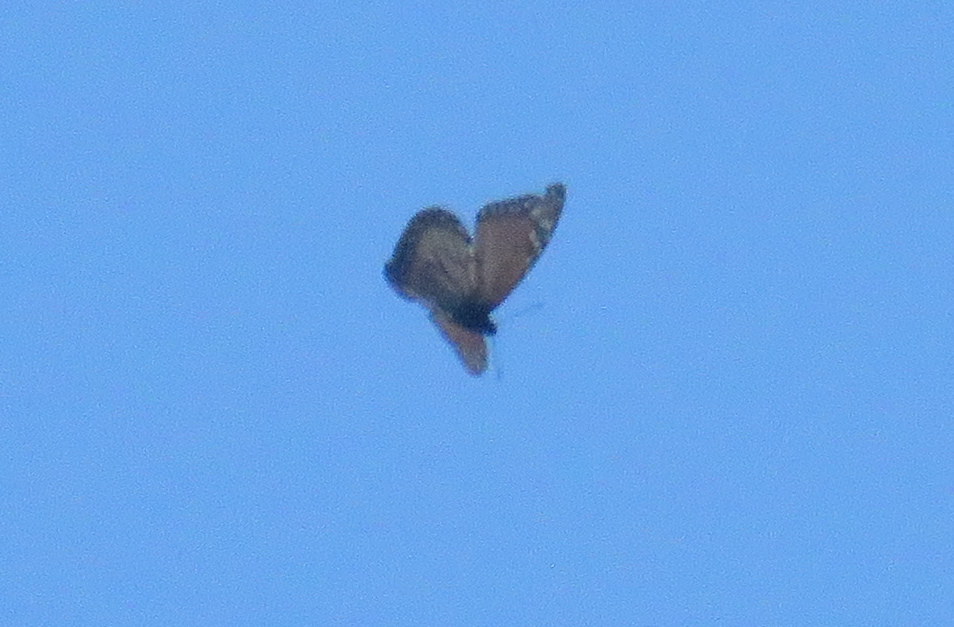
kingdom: Animalia
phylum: Arthropoda
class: Insecta
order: Lepidoptera
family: Nymphalidae
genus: Danaus
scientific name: Danaus erippus
